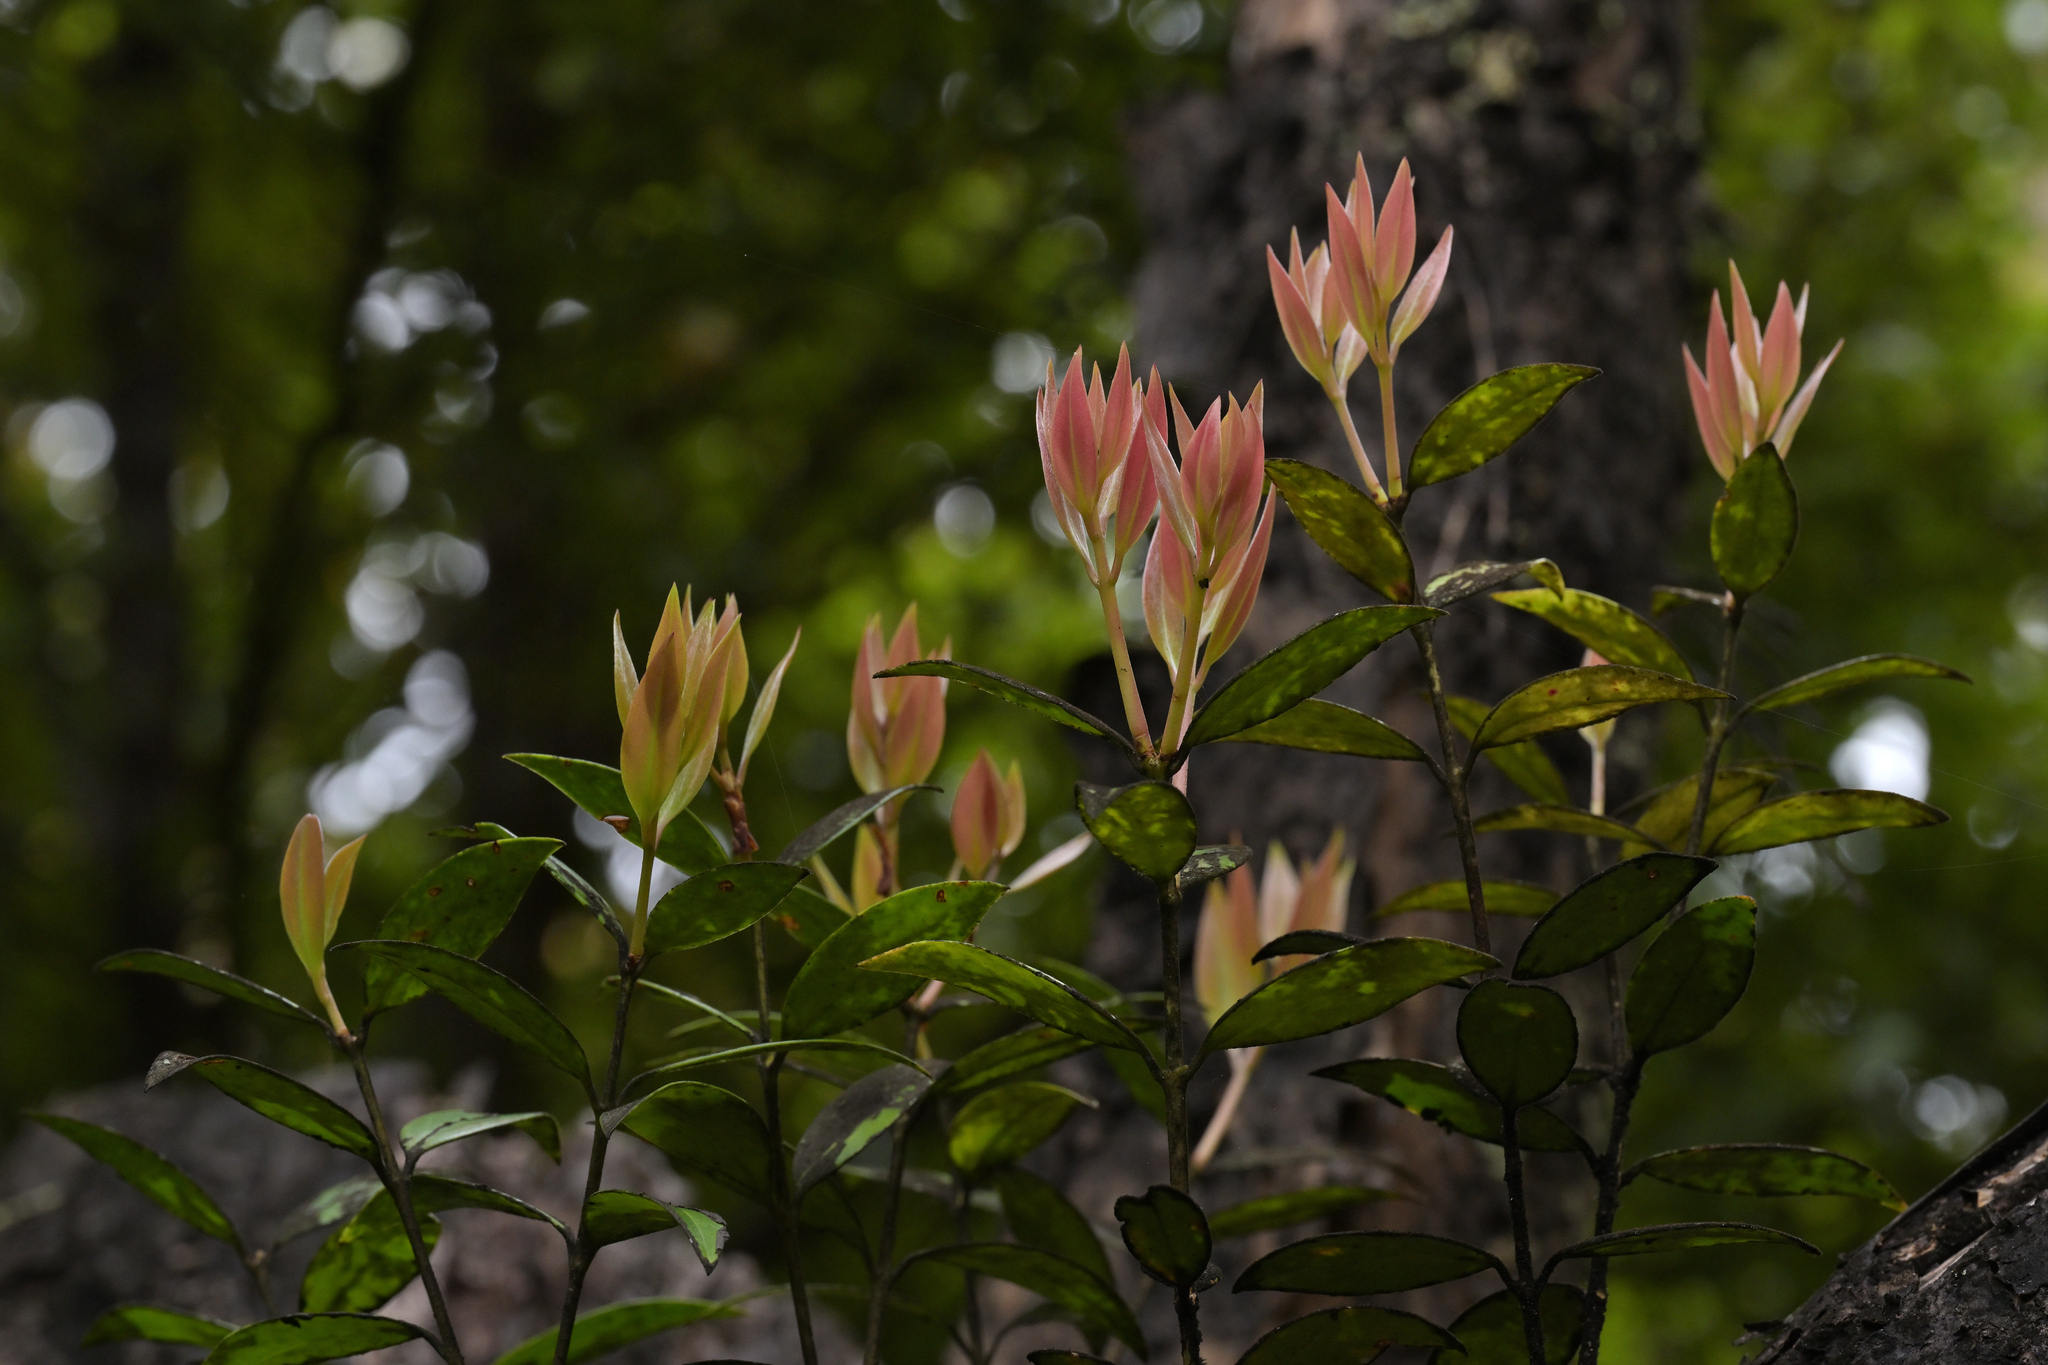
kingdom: Plantae
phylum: Tracheophyta
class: Magnoliopsida
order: Myrtales
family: Myrtaceae
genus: Metrosideros
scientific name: Metrosideros umbellata
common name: Southern rata
